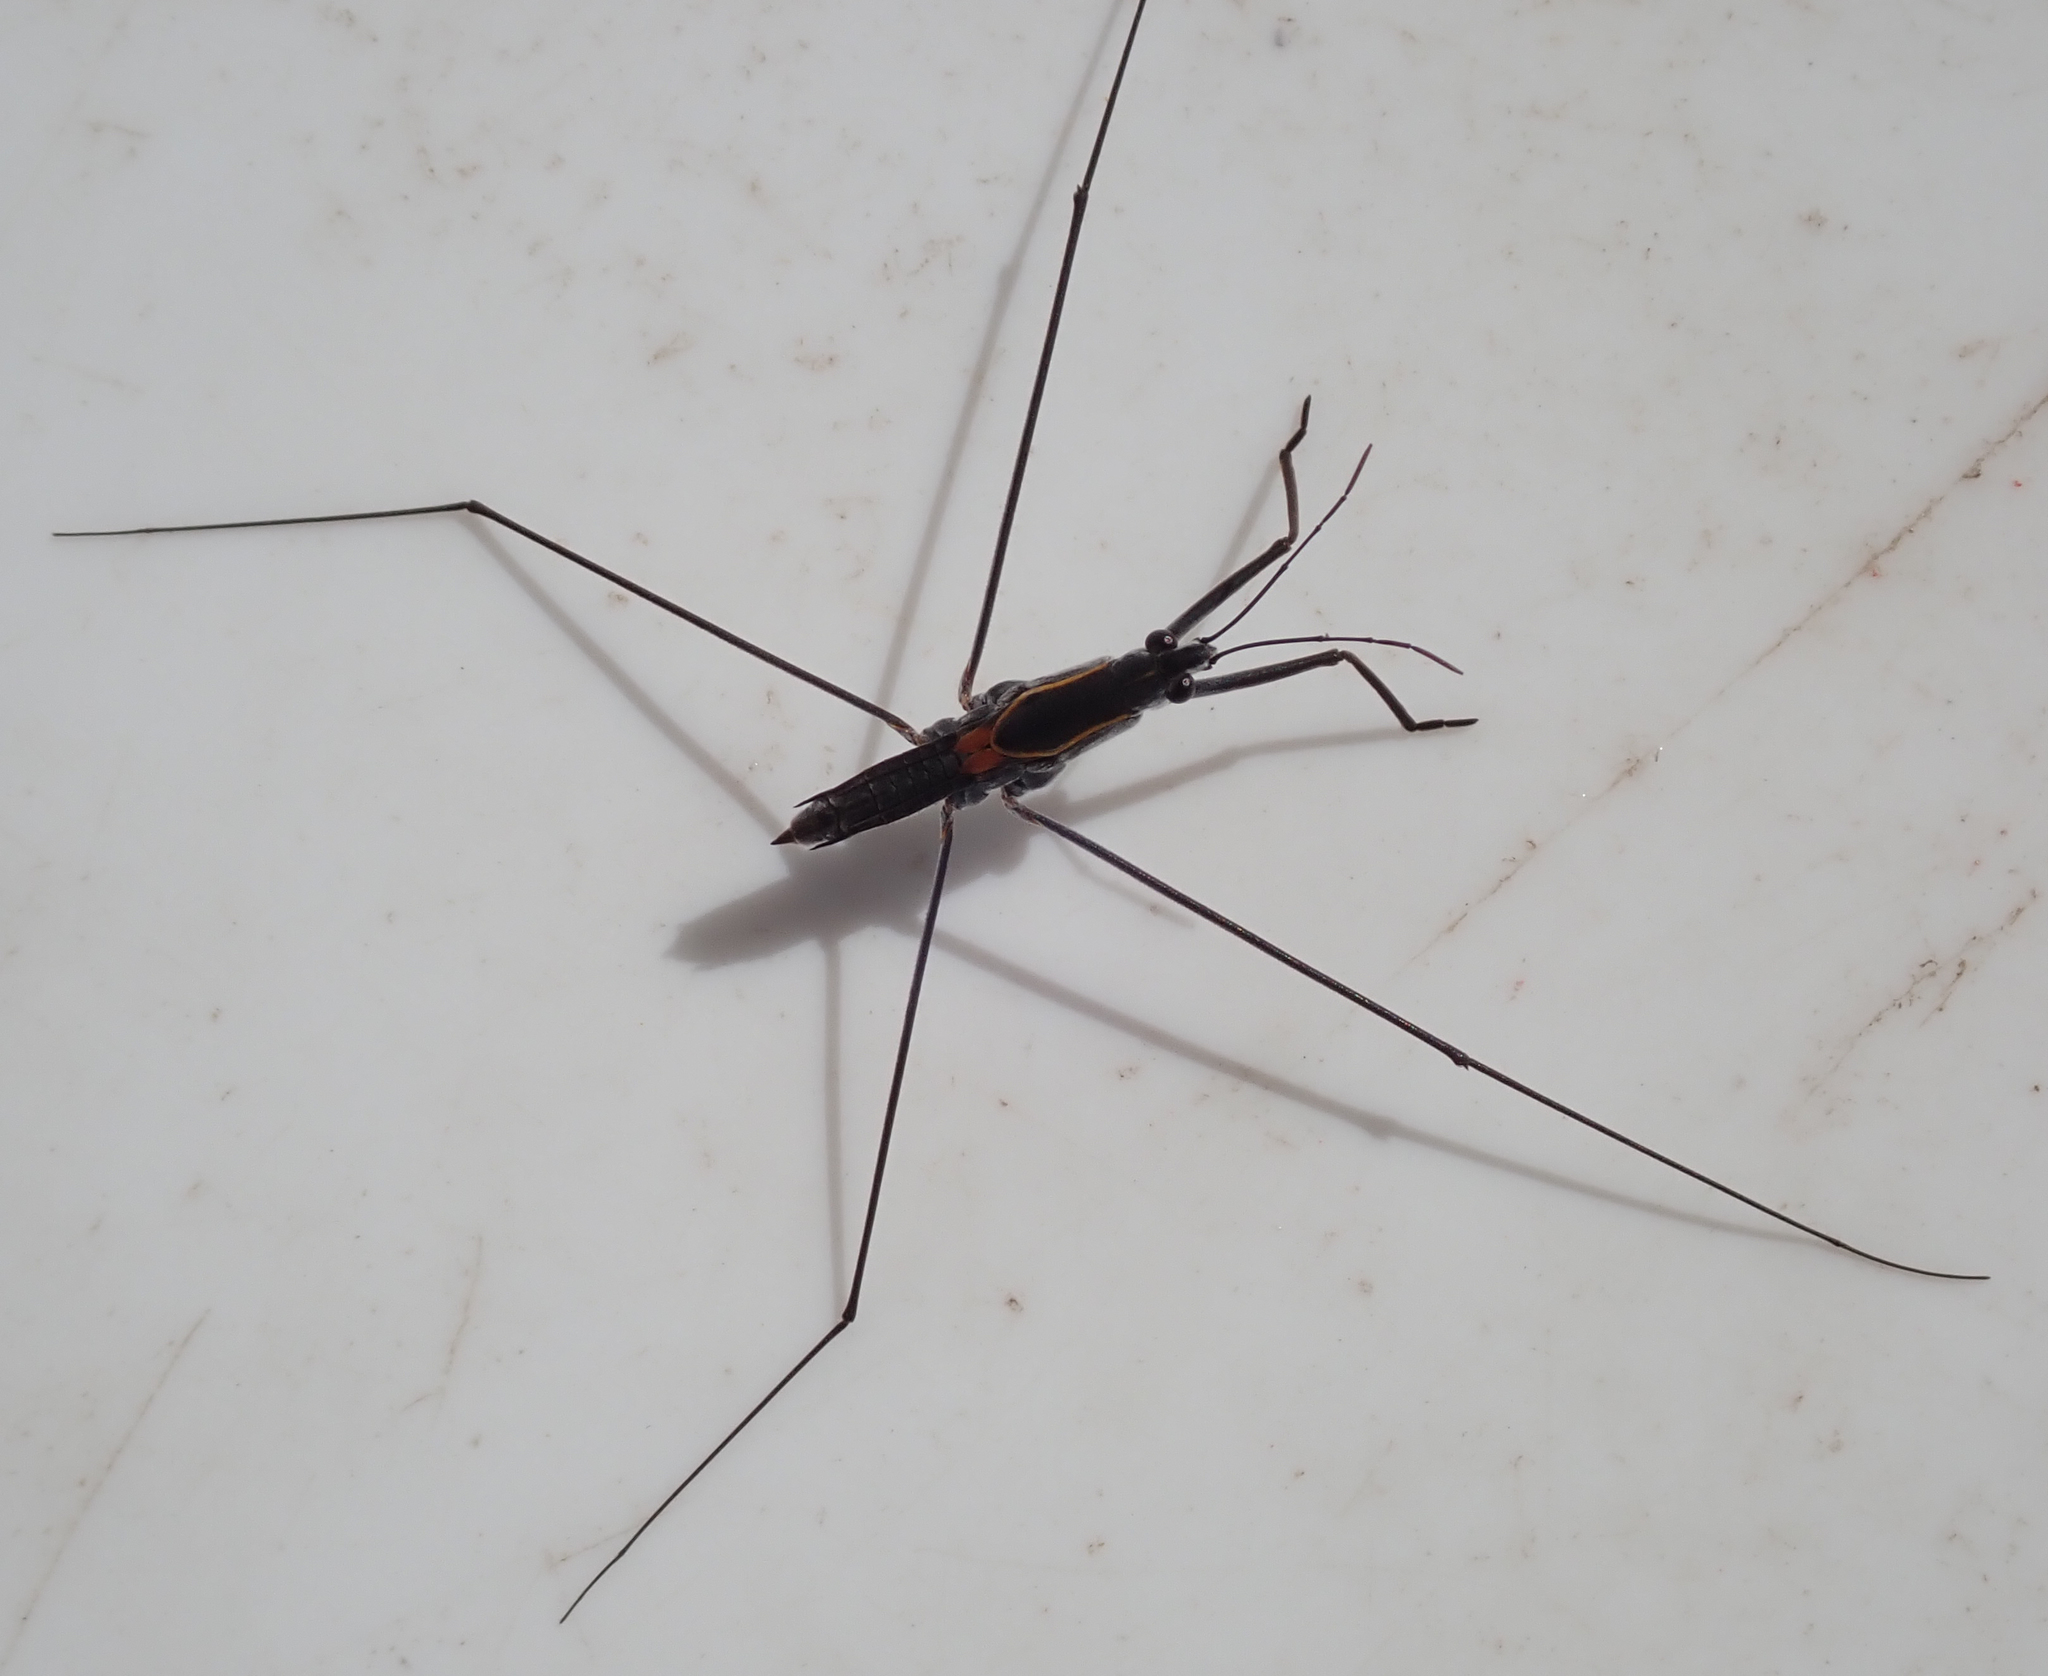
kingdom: Animalia
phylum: Arthropoda
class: Insecta
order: Hemiptera
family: Gerridae
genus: Aquarius
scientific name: Aquarius distanti
